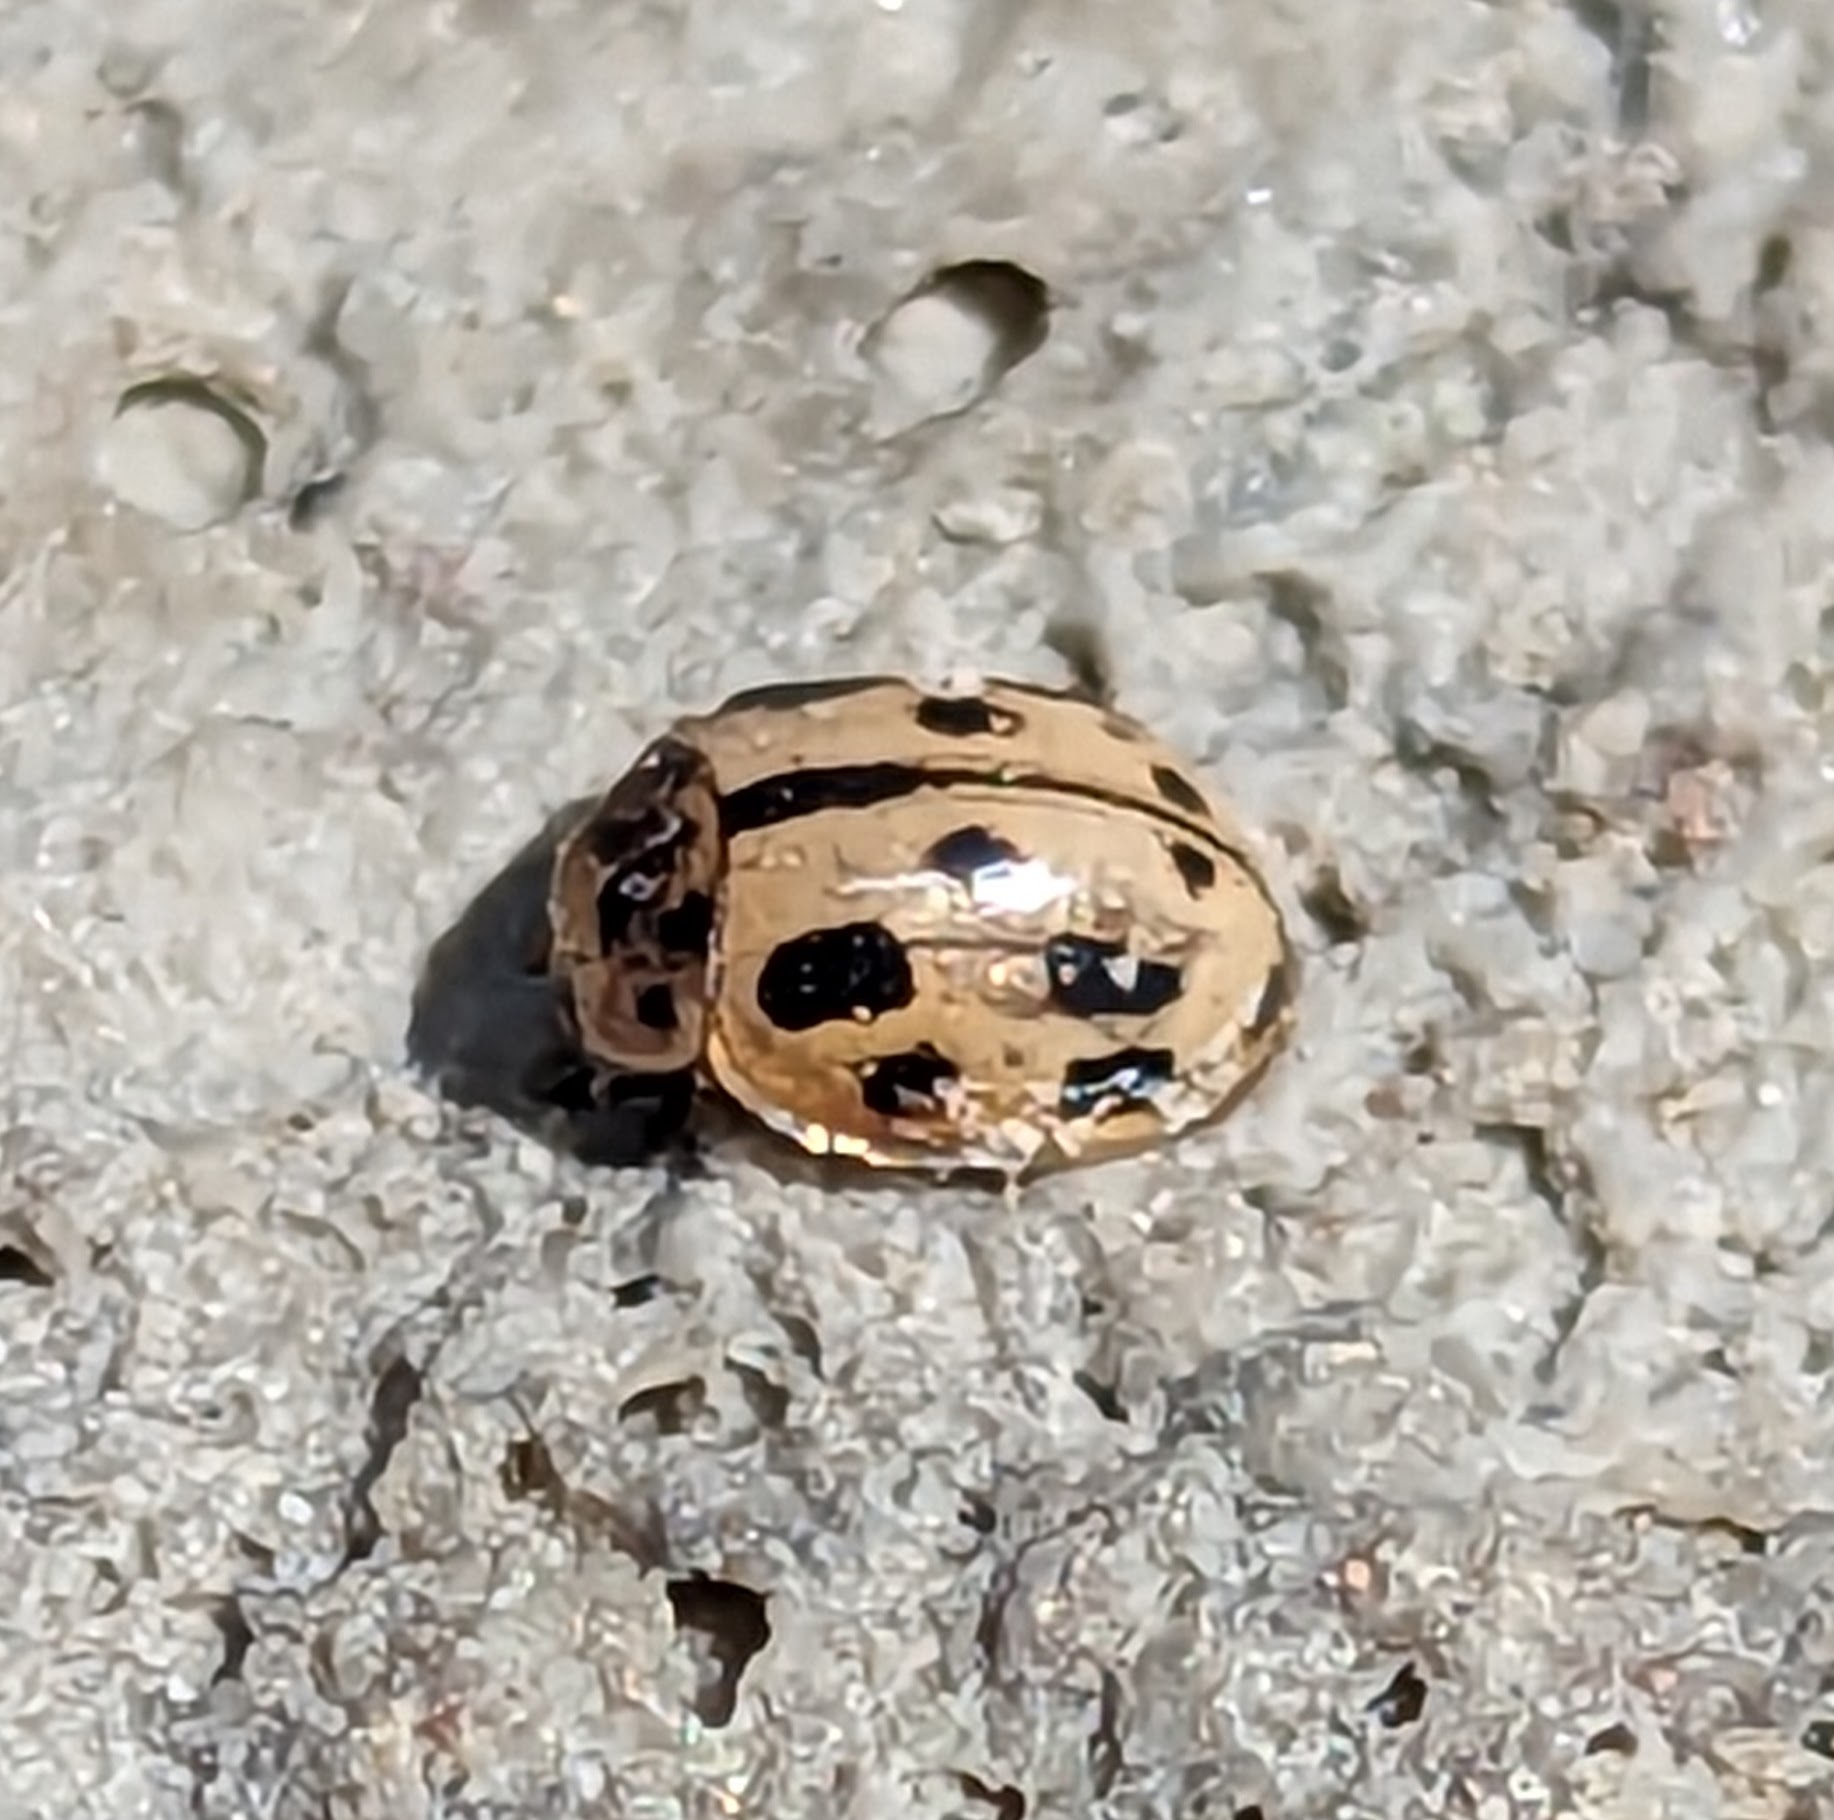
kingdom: Animalia
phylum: Arthropoda
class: Insecta
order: Coleoptera
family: Coccinellidae
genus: Propylaea
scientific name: Propylaea quatuordecimpunctata
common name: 14-spotted ladybird beetle
